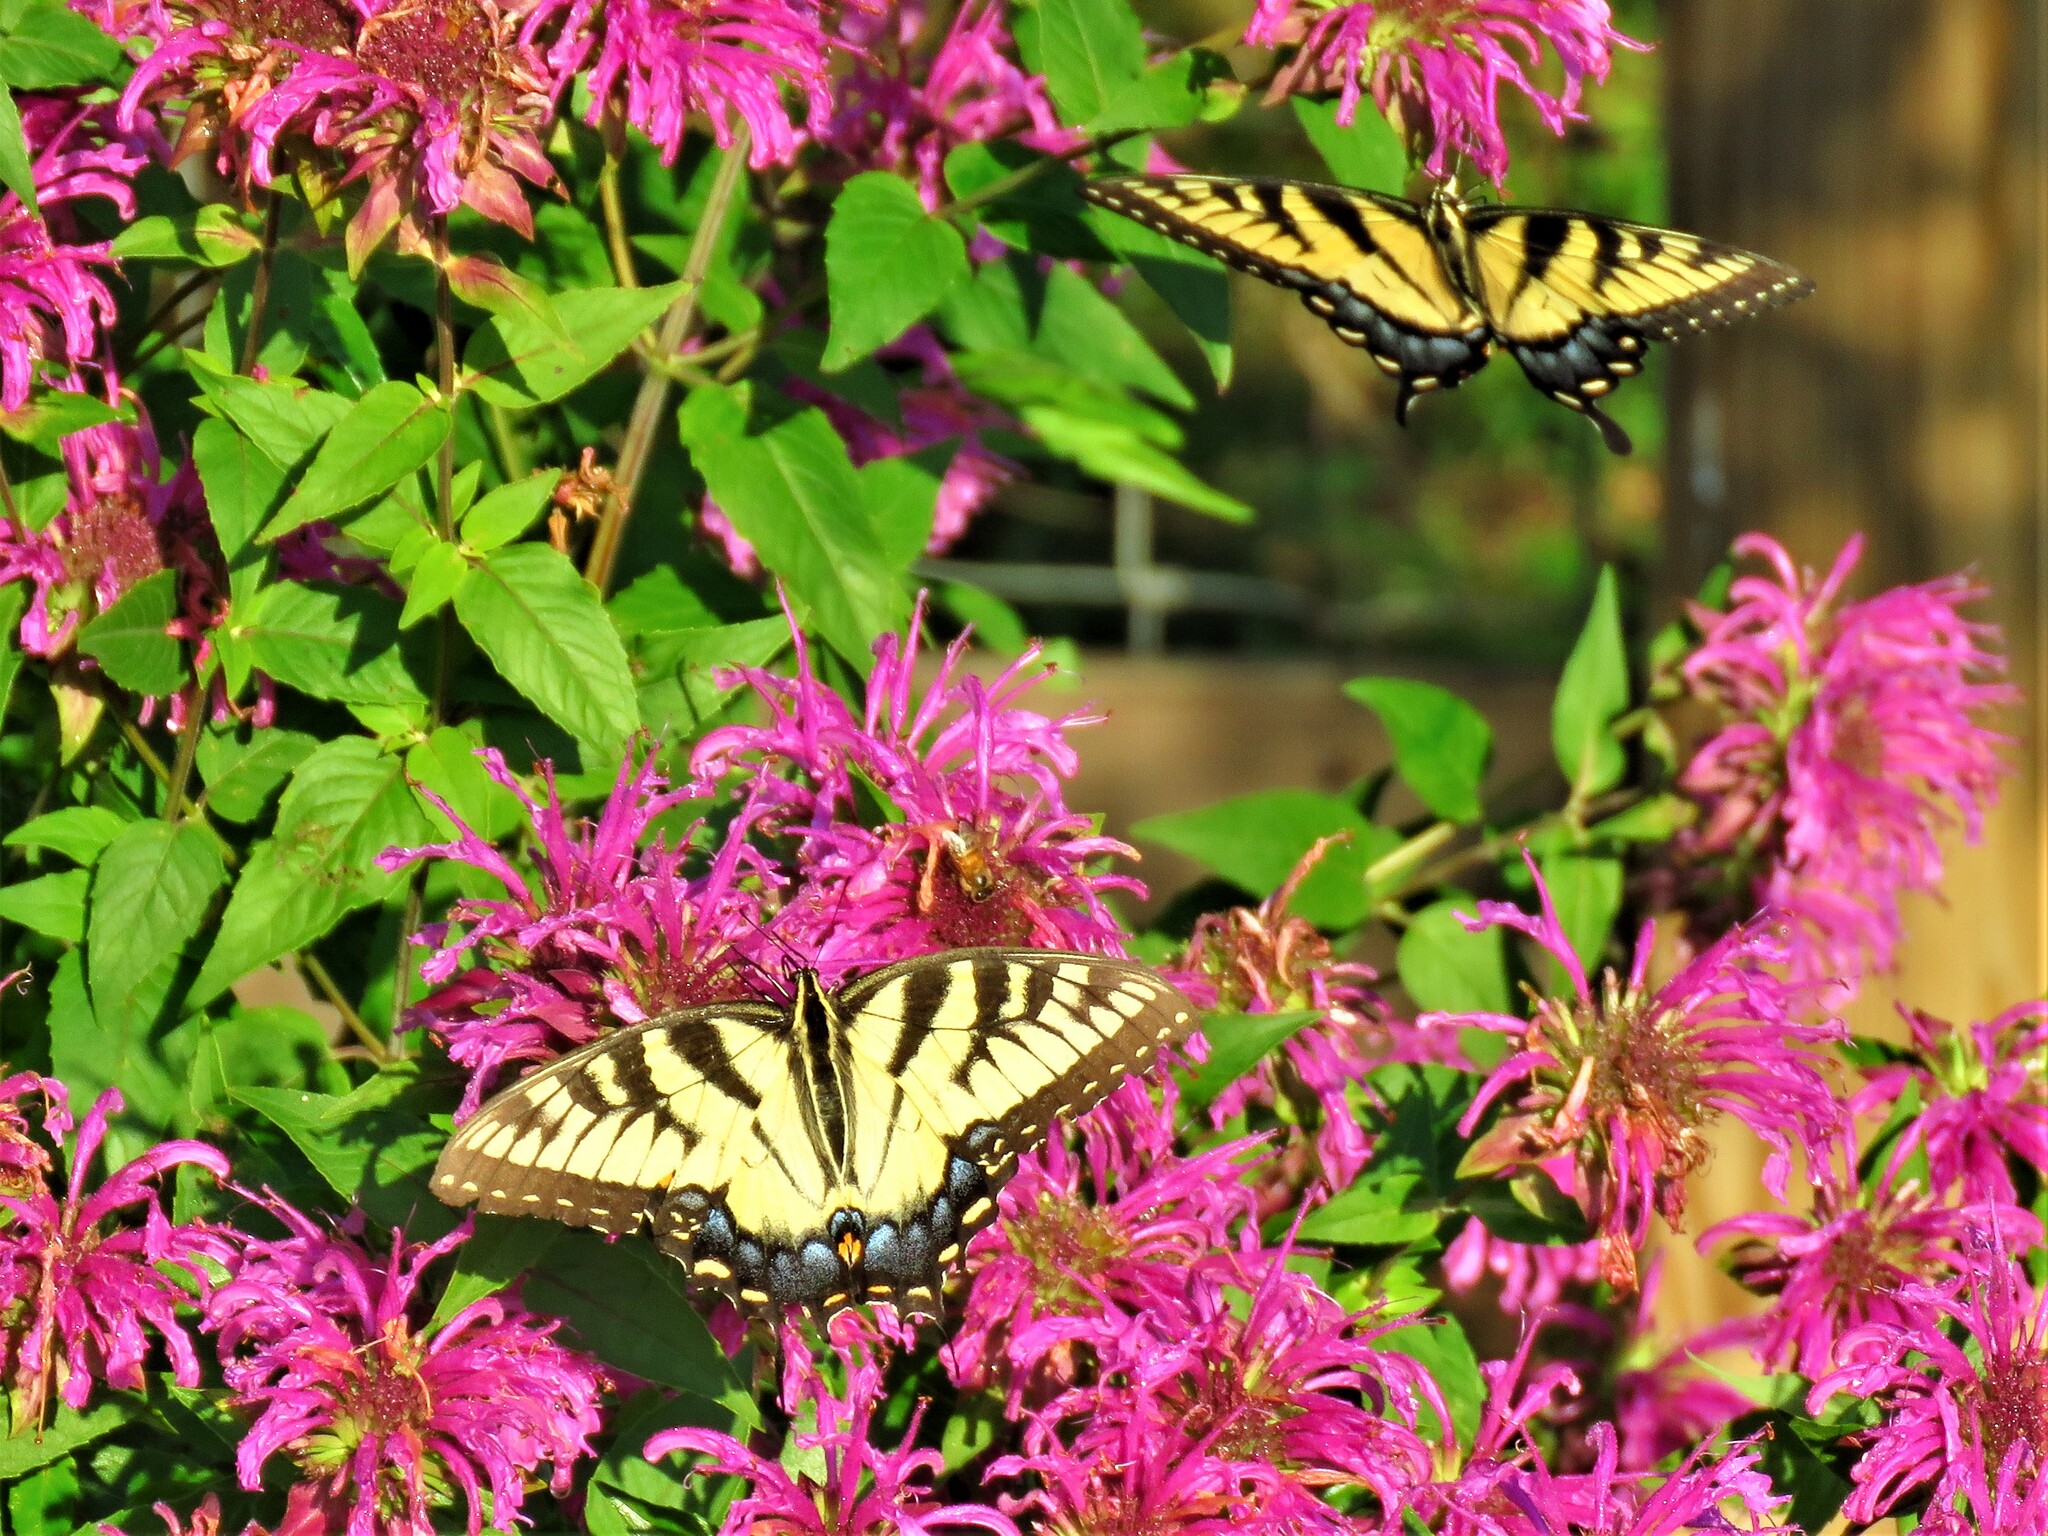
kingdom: Animalia
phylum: Arthropoda
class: Insecta
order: Lepidoptera
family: Papilionidae
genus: Papilio
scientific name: Papilio glaucus
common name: Tiger swallowtail
